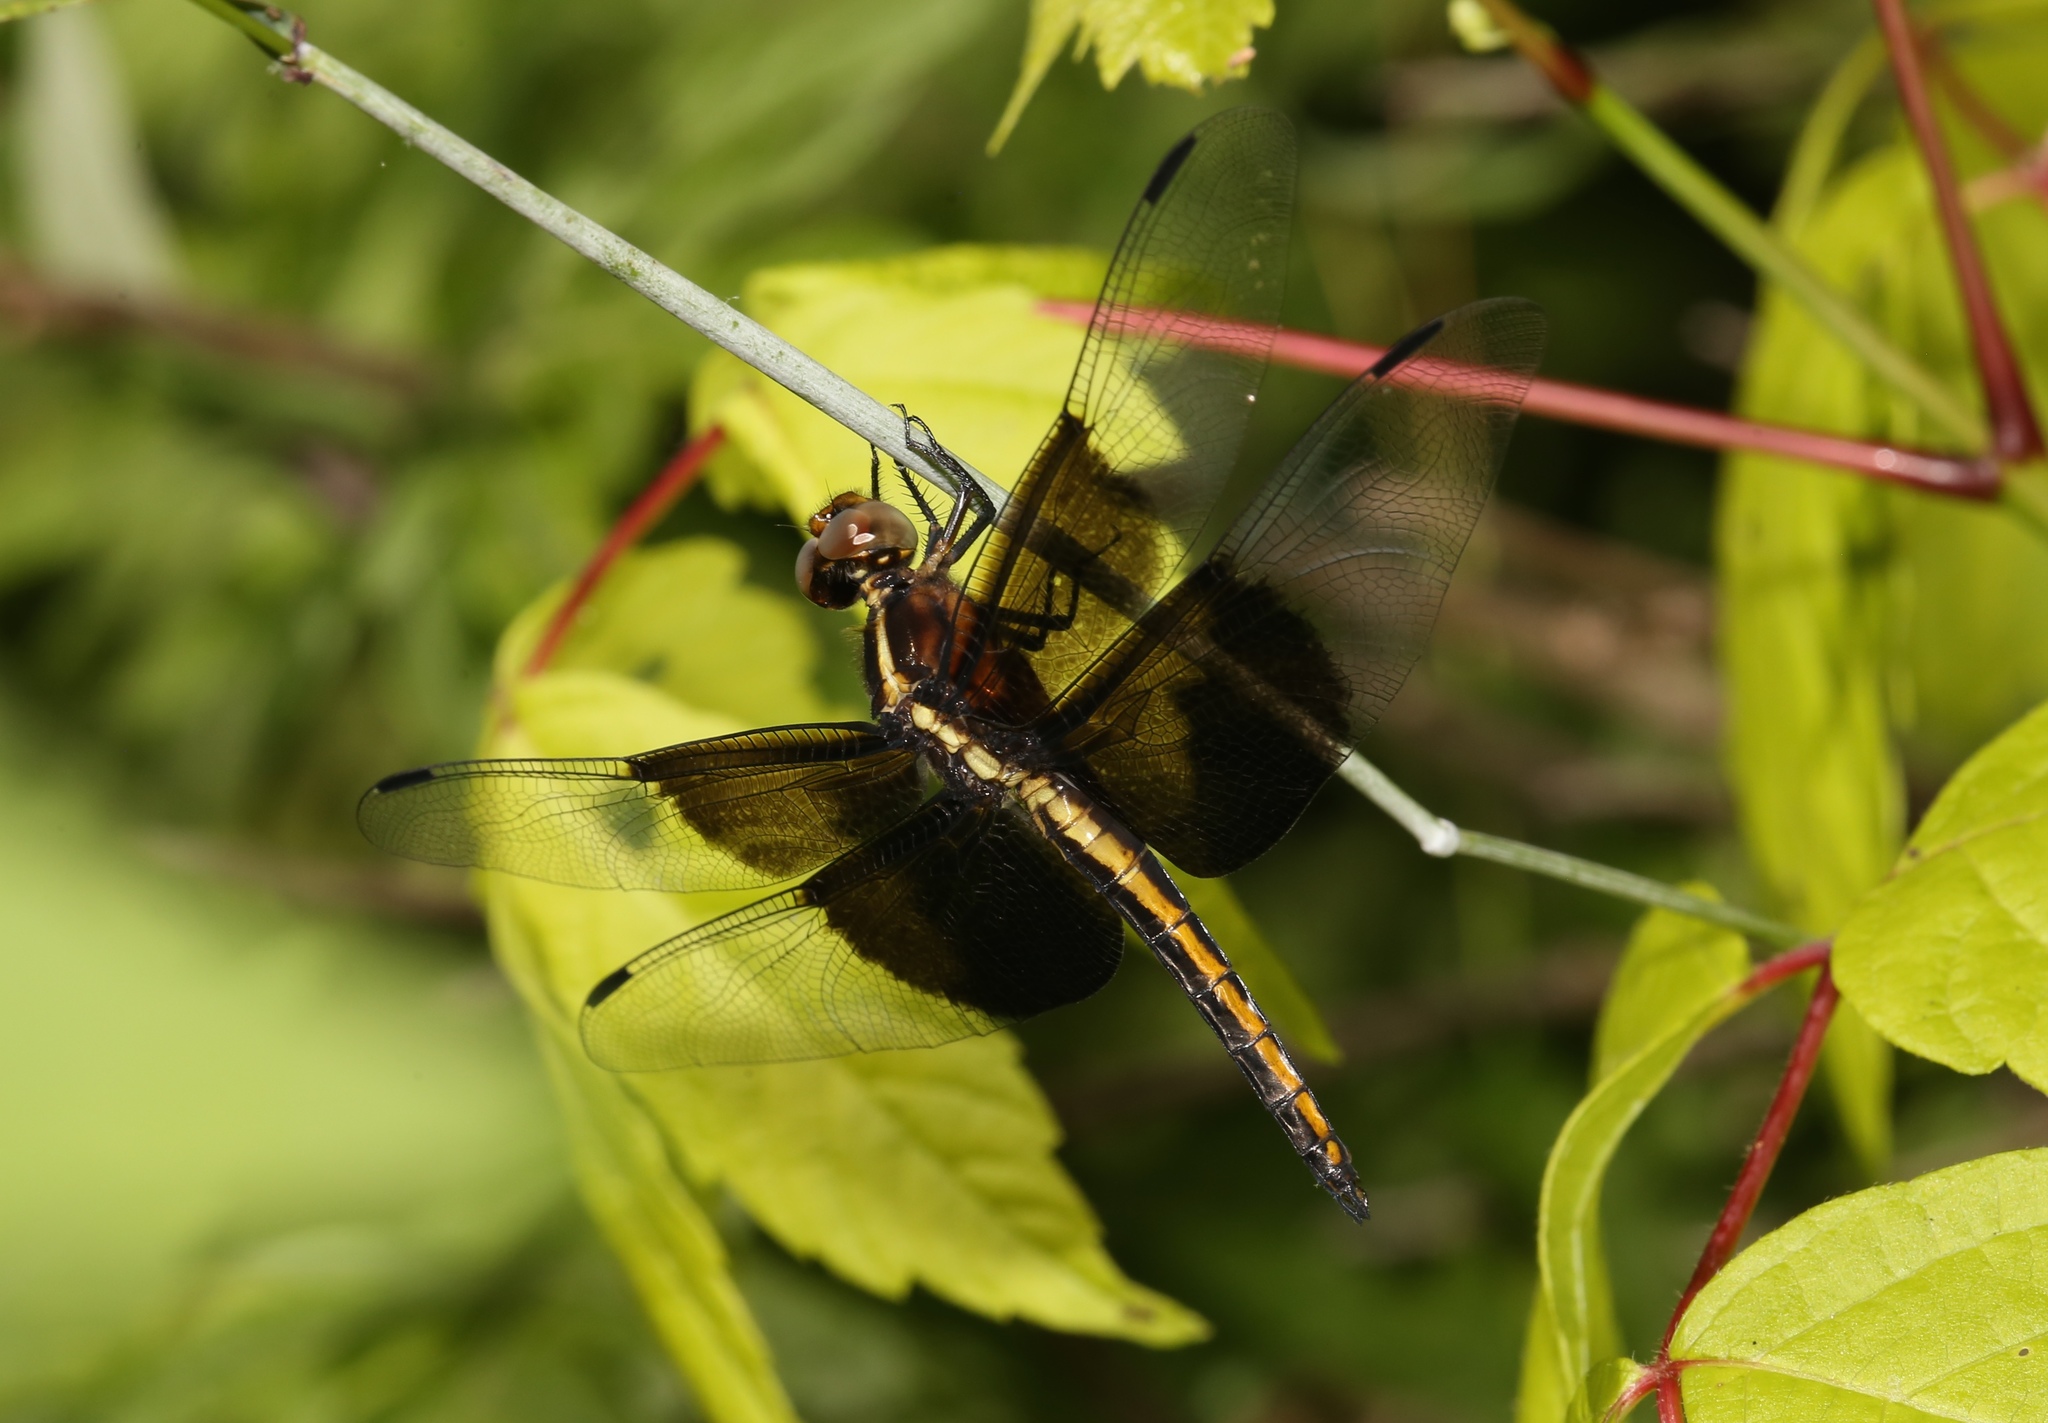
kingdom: Animalia
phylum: Arthropoda
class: Insecta
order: Odonata
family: Libellulidae
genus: Libellula
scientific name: Libellula luctuosa
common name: Widow skimmer
